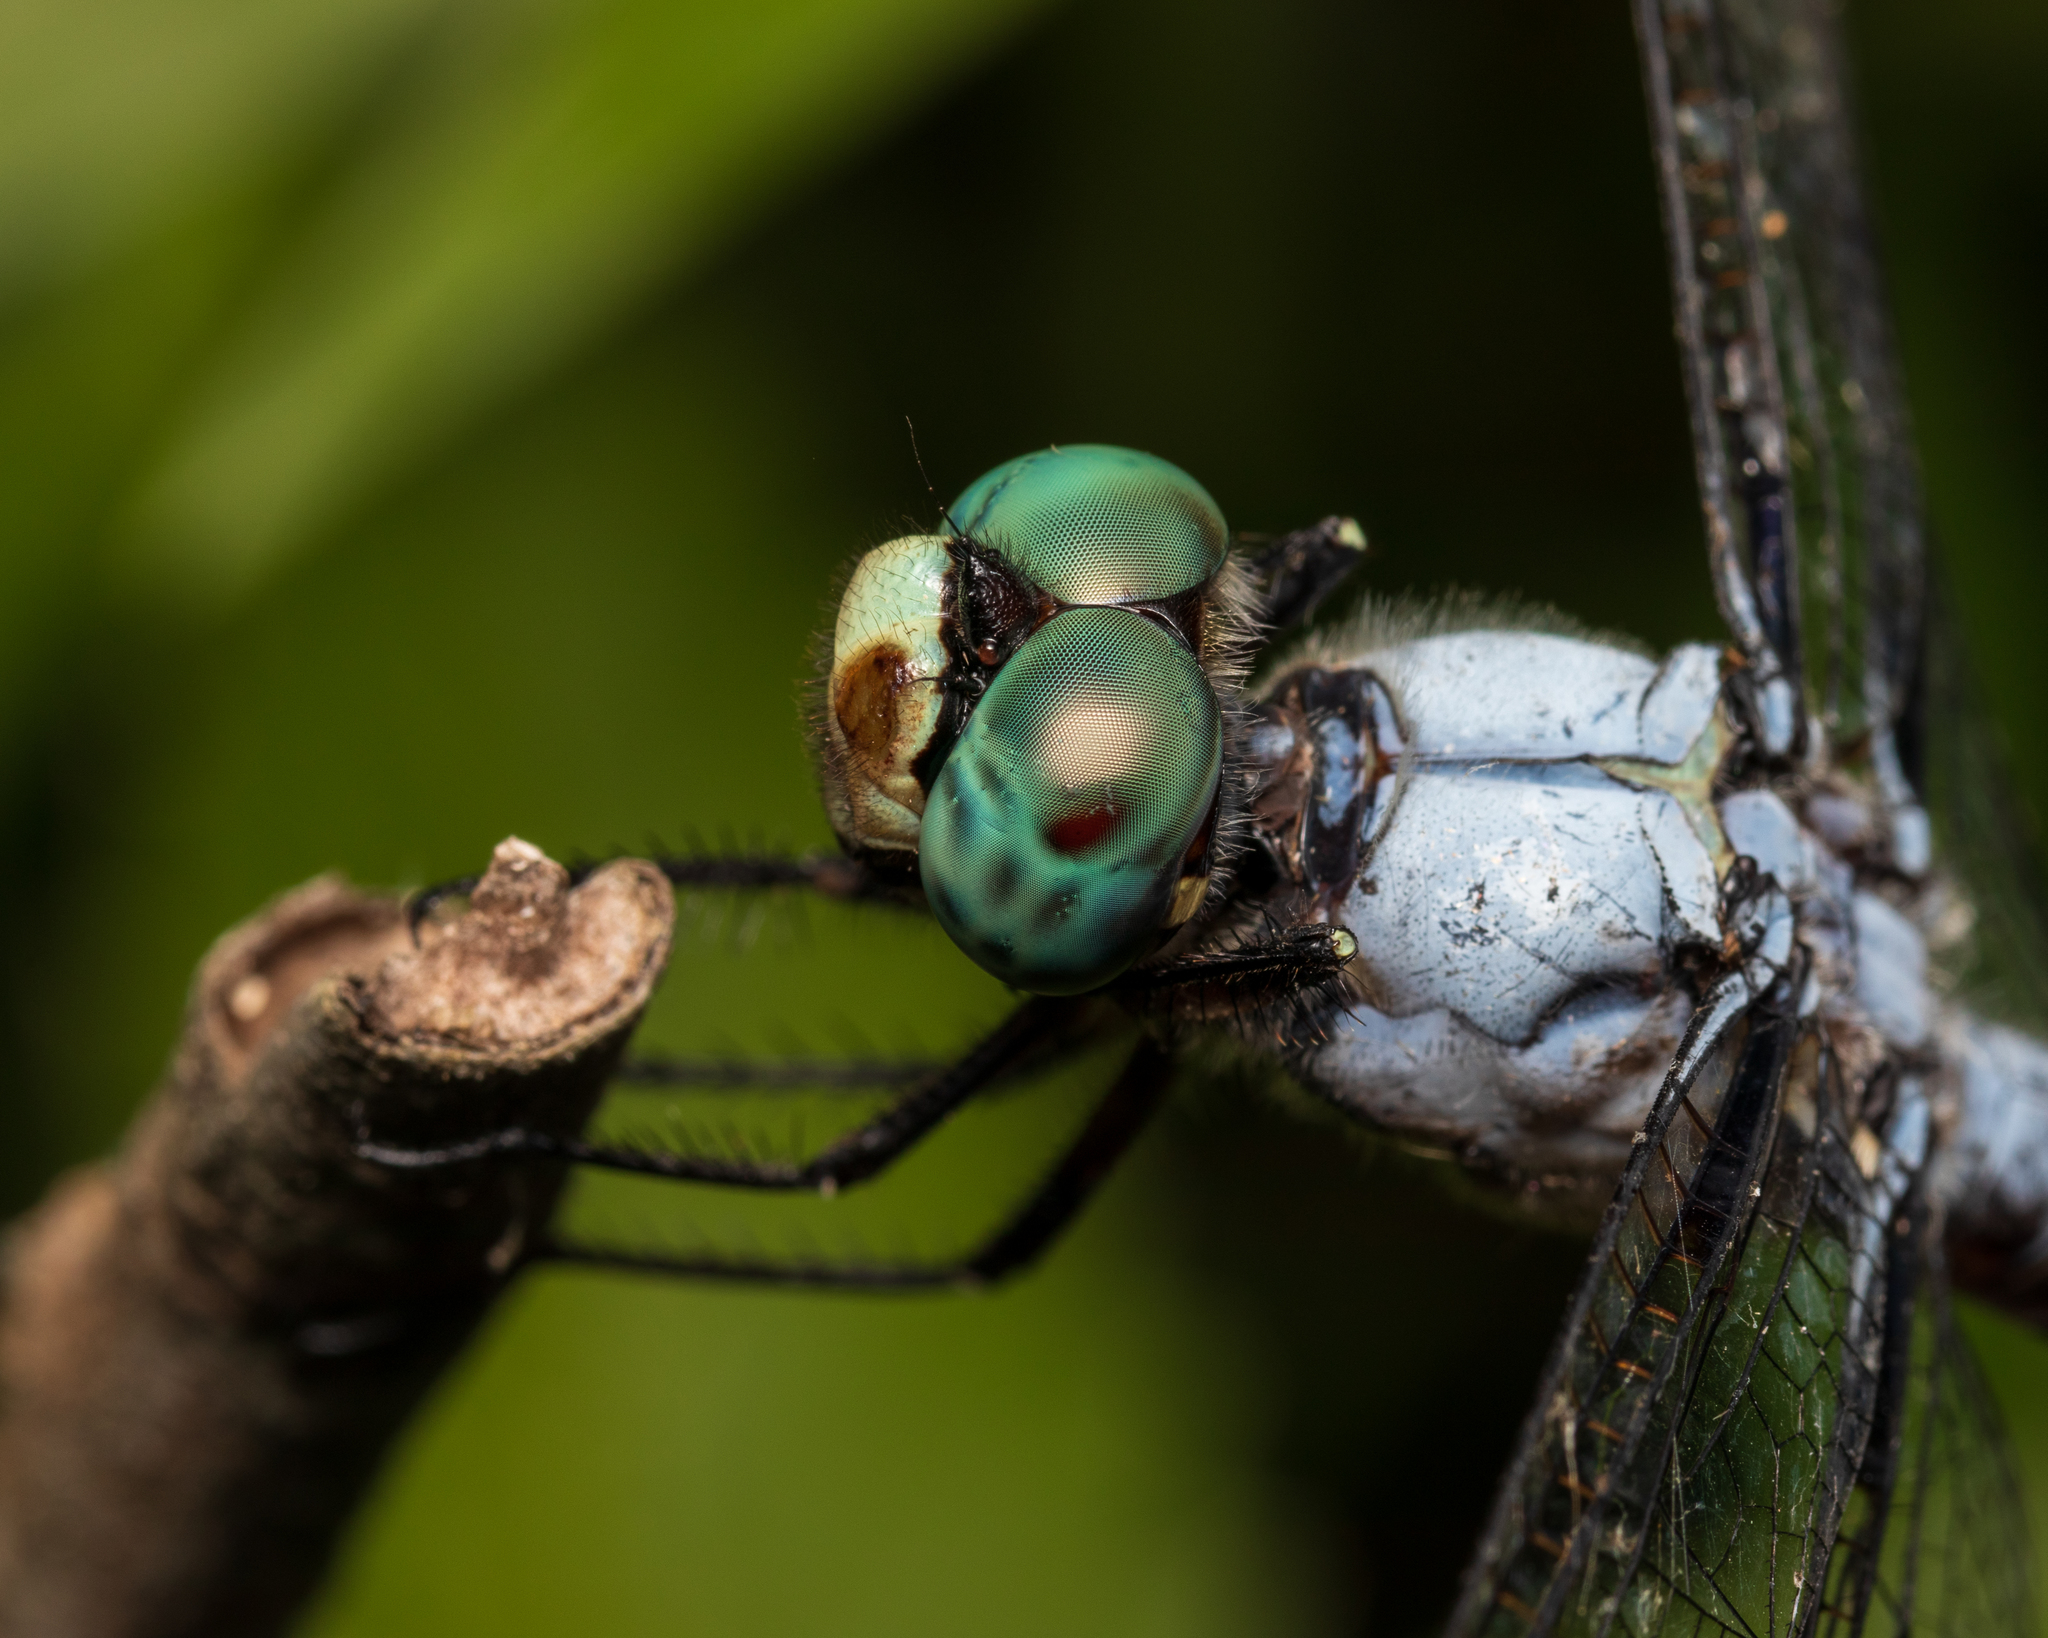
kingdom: Animalia
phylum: Arthropoda
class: Insecta
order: Odonata
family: Libellulidae
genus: Libellula
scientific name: Libellula vibrans
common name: Great blue skimmer
